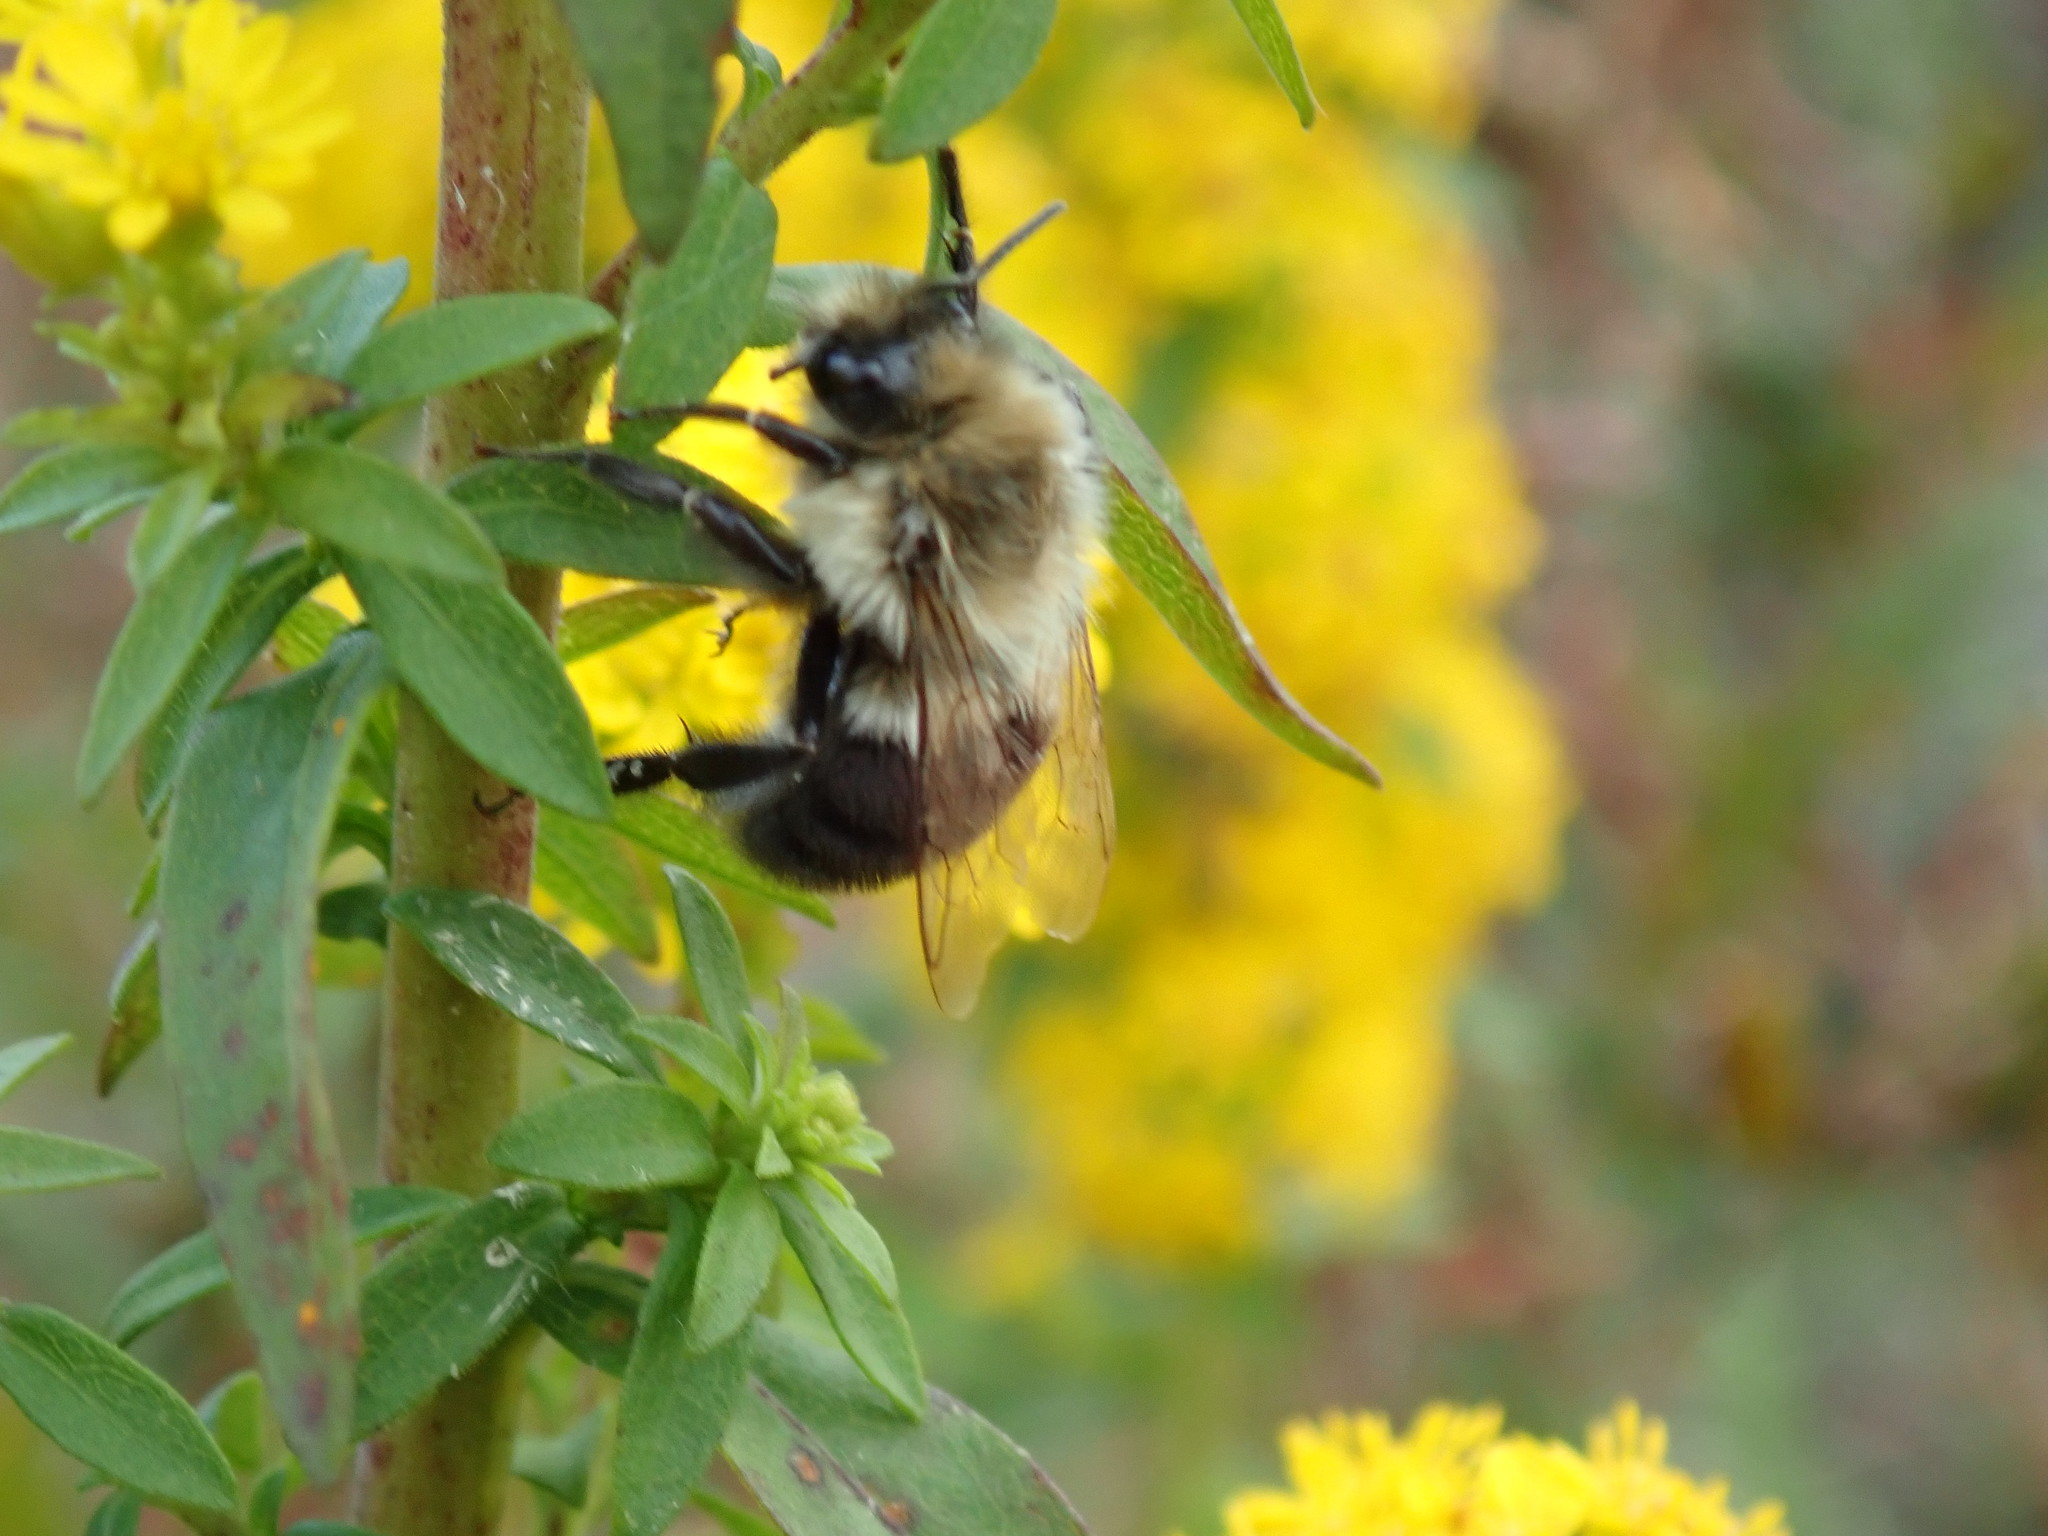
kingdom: Animalia
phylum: Arthropoda
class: Insecta
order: Hymenoptera
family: Apidae
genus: Bombus
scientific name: Bombus impatiens
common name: Common eastern bumble bee
